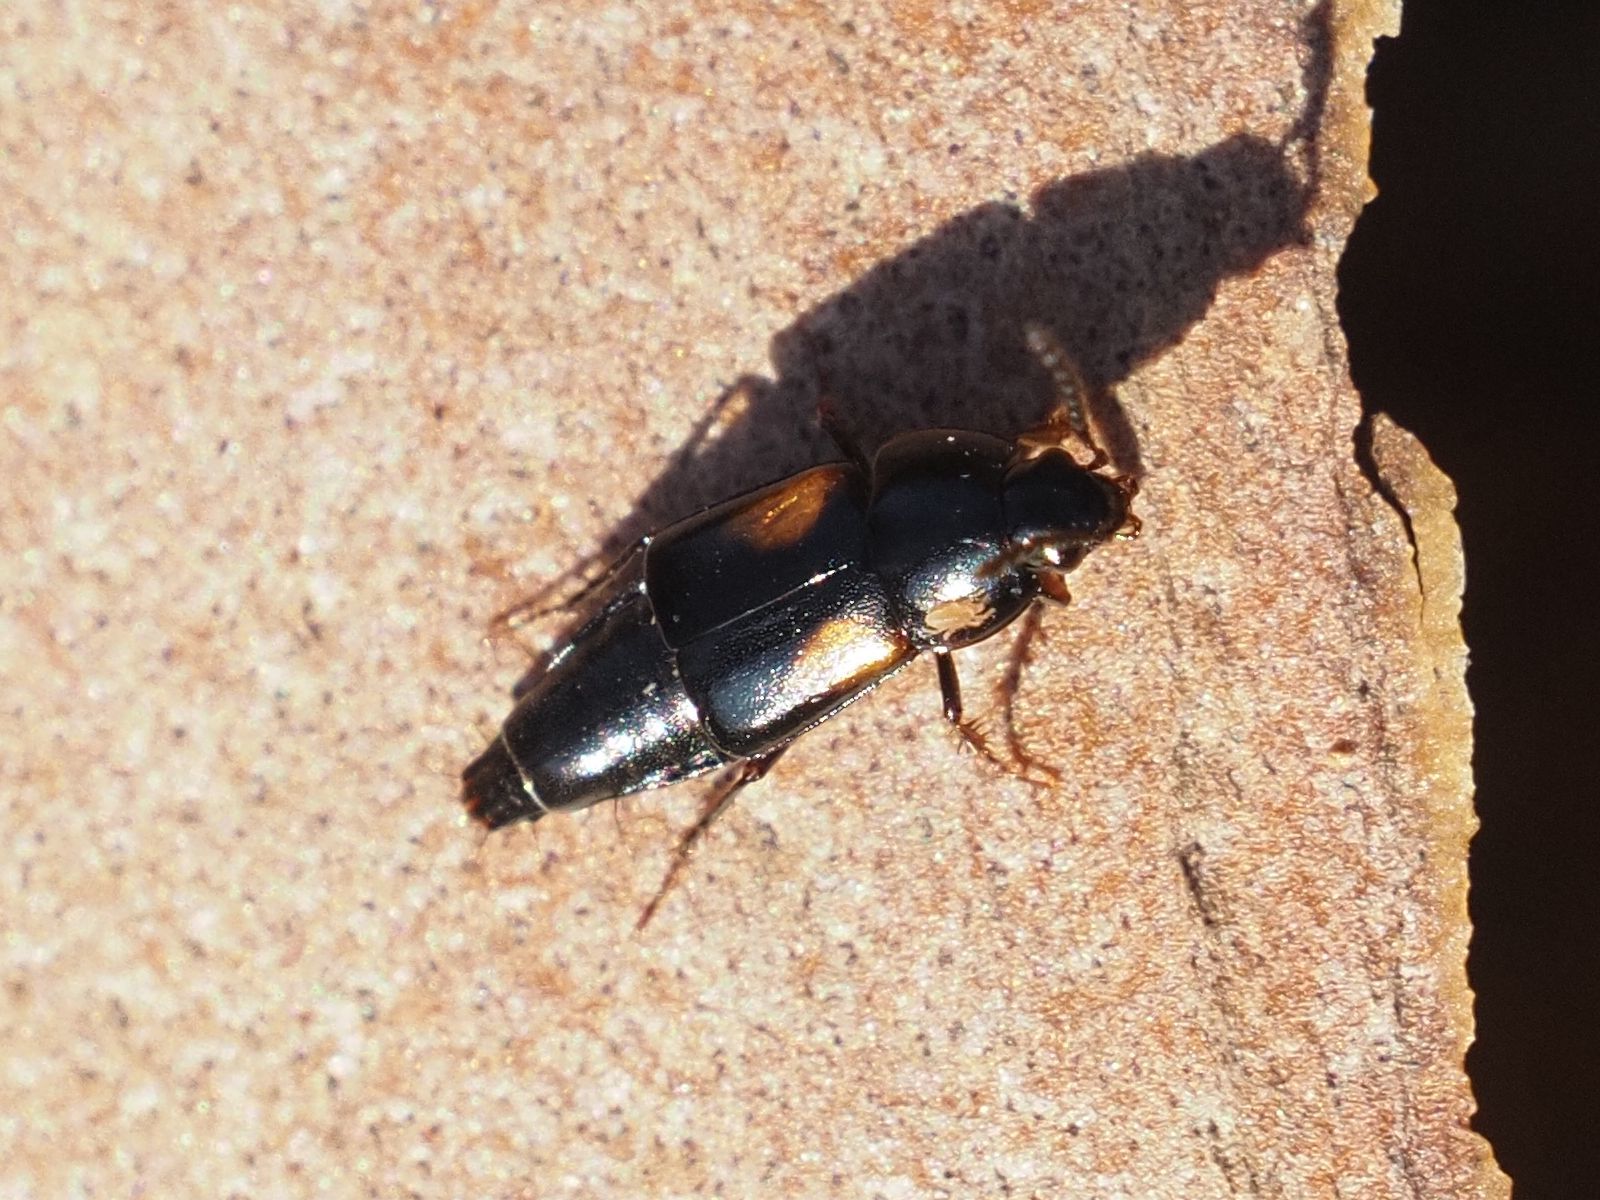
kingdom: Animalia
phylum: Arthropoda
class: Insecta
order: Coleoptera
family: Staphylinidae
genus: Tachinus
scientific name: Tachinus subterraneus
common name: Staph beetle
